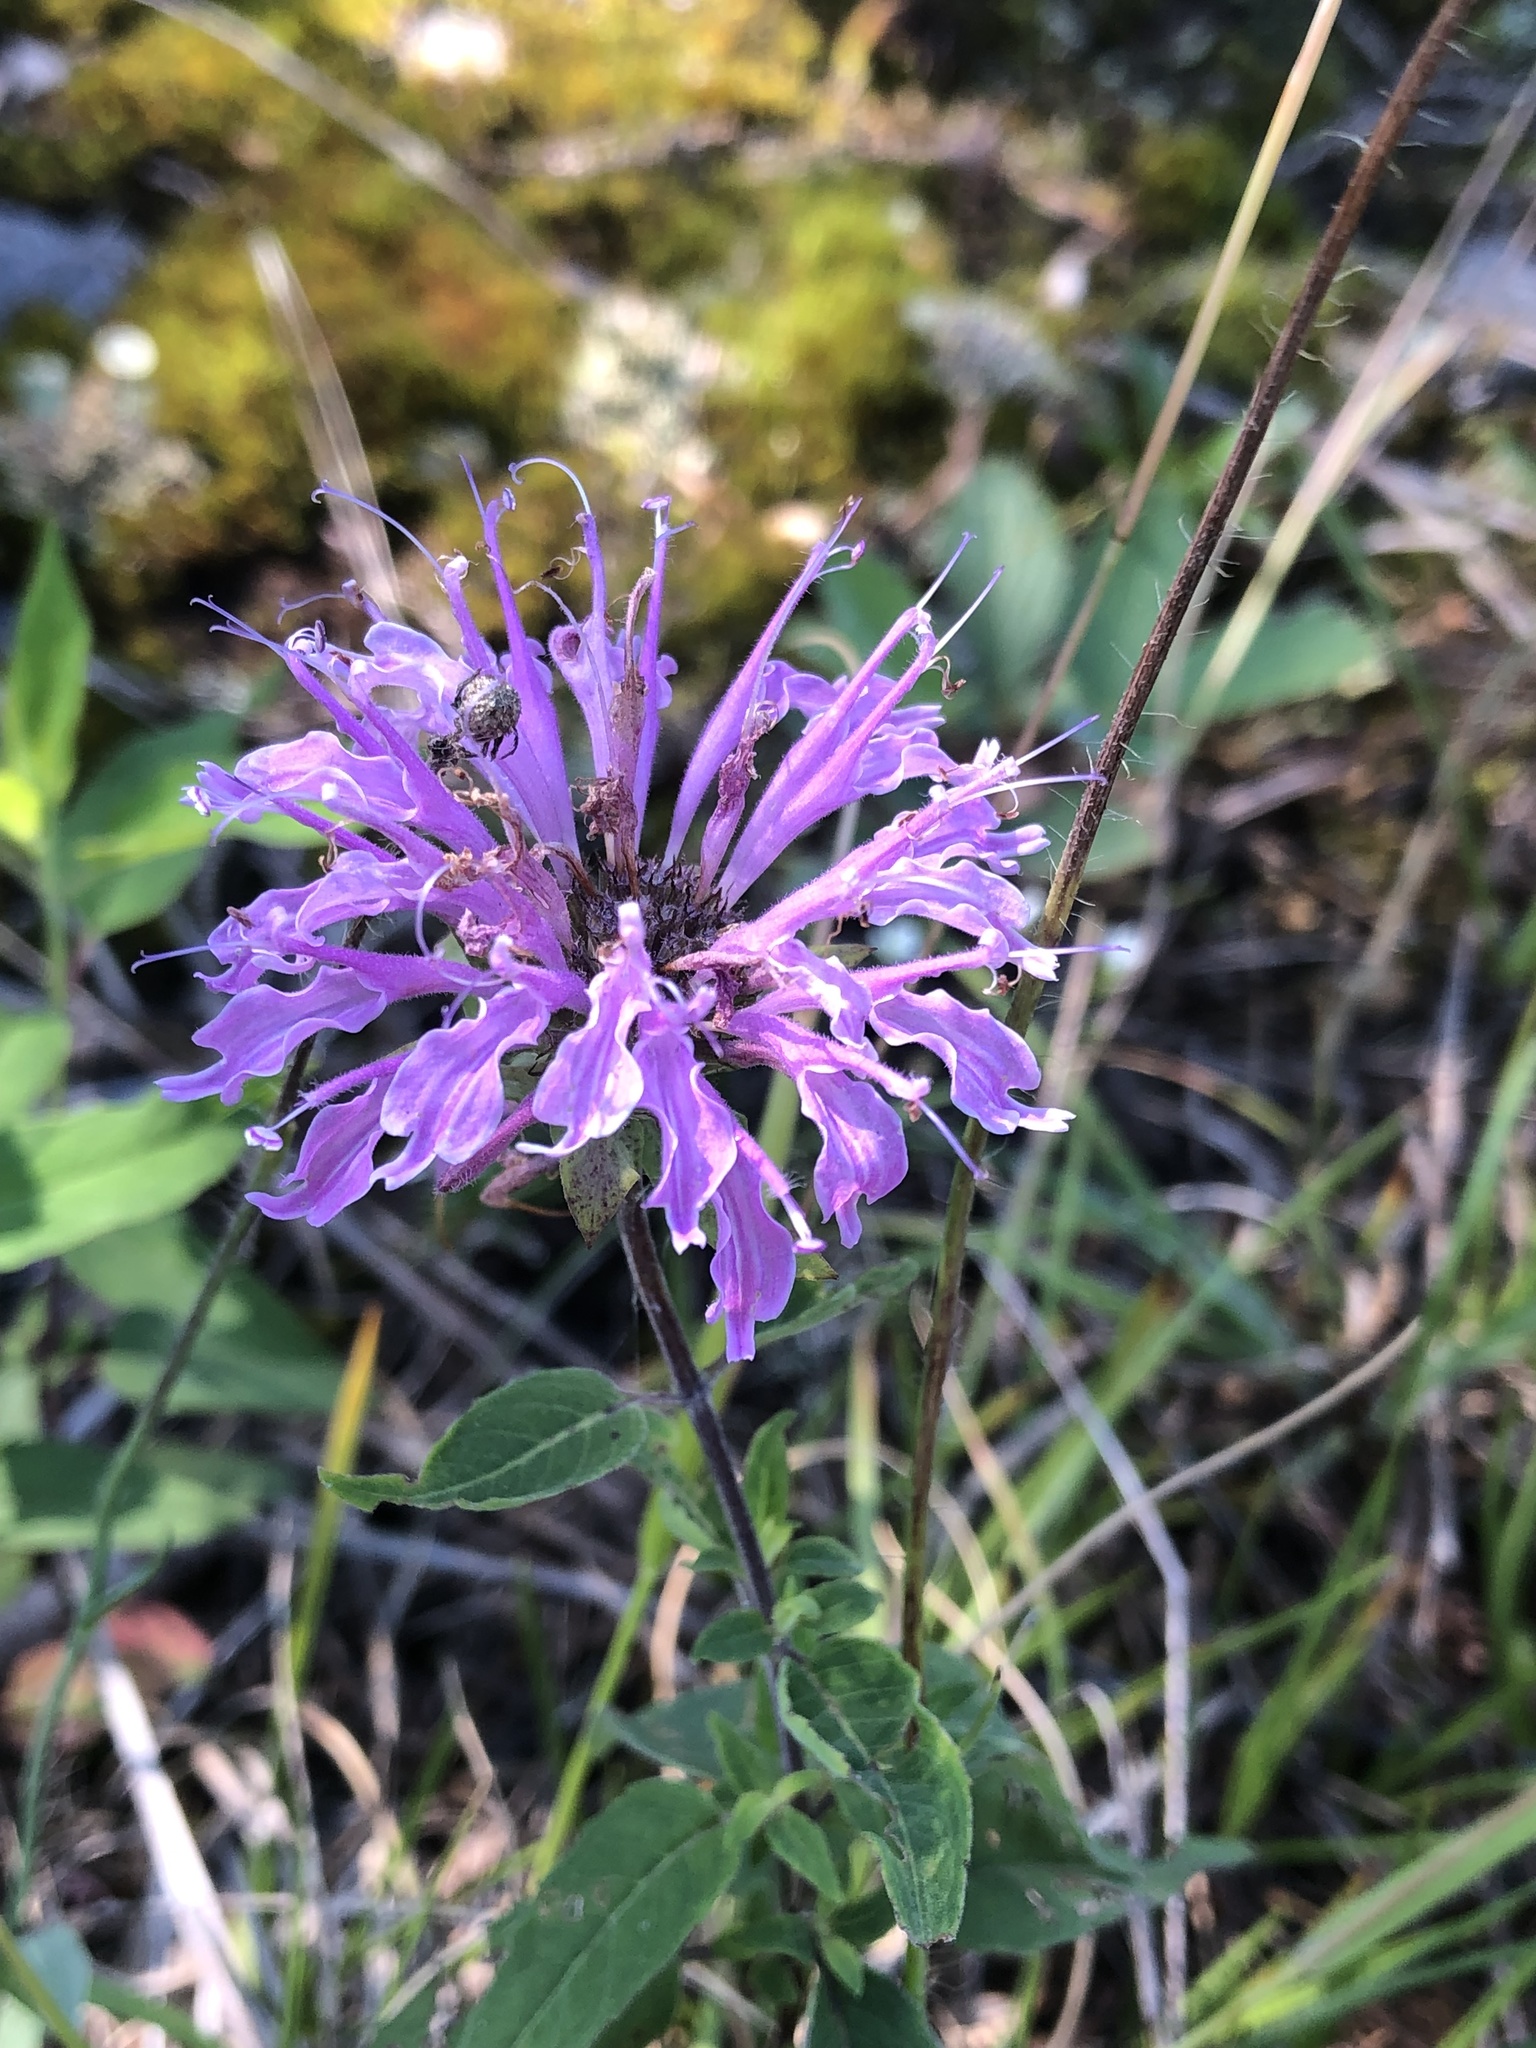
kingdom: Plantae
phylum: Tracheophyta
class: Magnoliopsida
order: Lamiales
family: Lamiaceae
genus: Monarda
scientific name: Monarda fistulosa
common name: Purple beebalm
